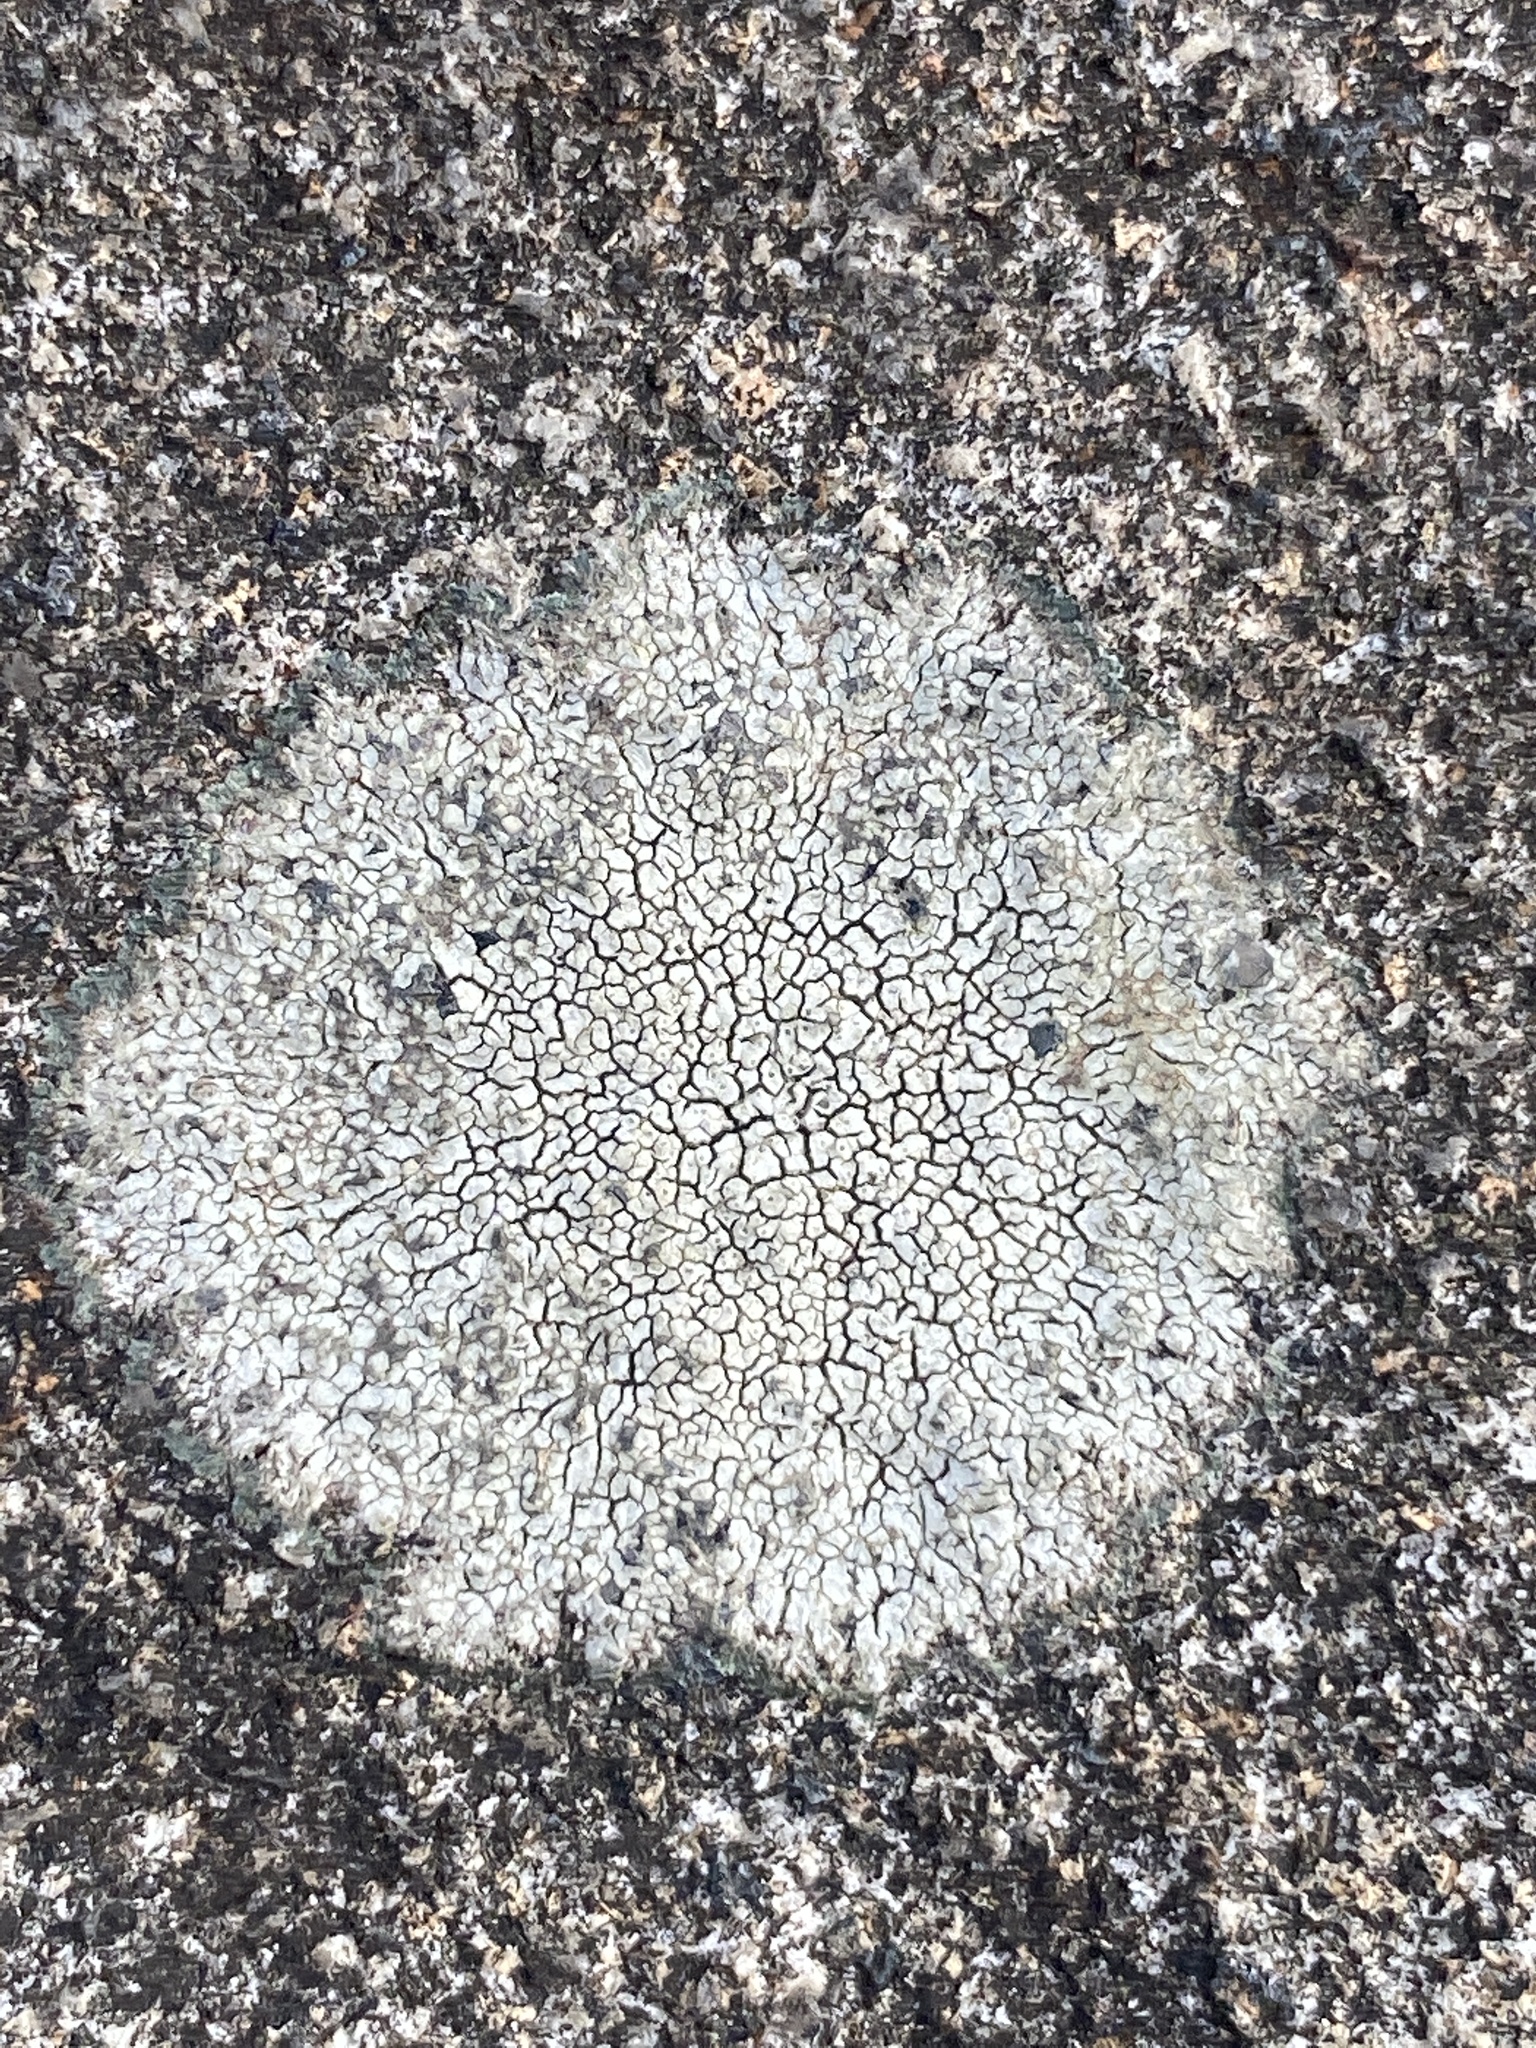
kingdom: Fungi
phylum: Ascomycota
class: Lecanoromycetes
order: Pertusariales
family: Megasporaceae
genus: Aspicilia
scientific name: Aspicilia cinerea
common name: Cinder lichen
